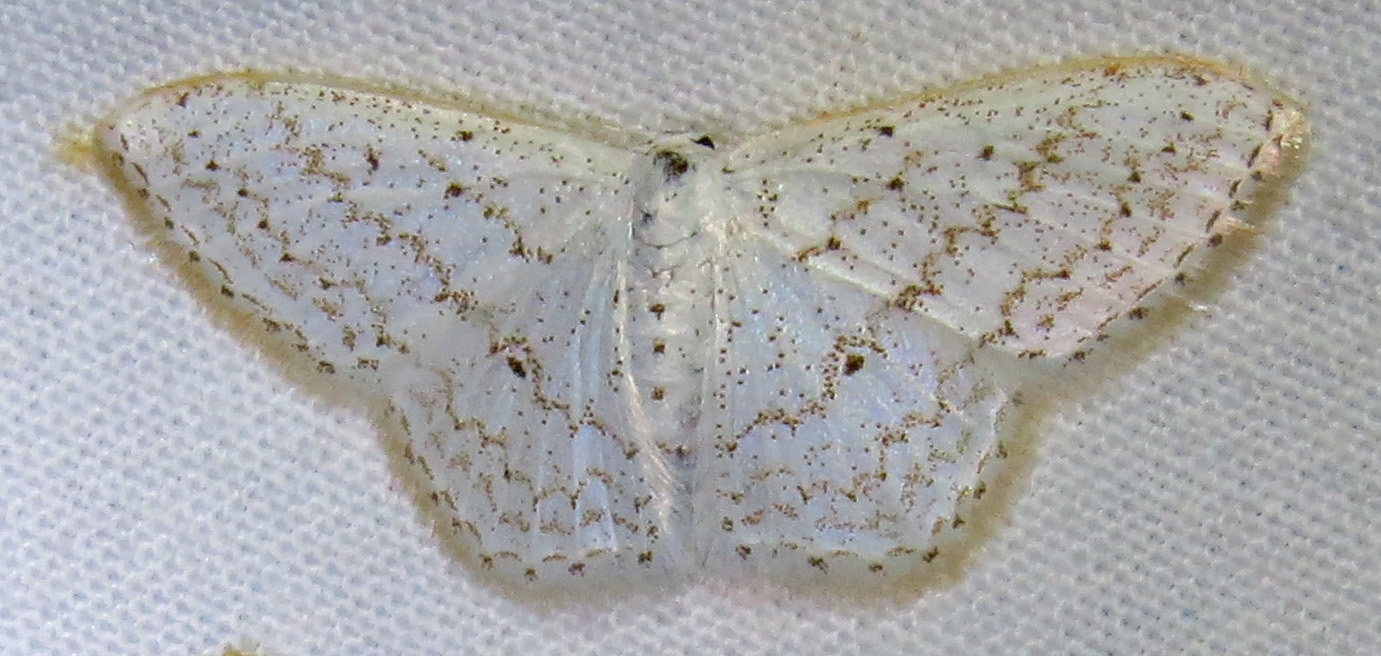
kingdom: Animalia
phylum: Arthropoda
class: Insecta
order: Lepidoptera
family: Geometridae
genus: Idaea
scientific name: Idaea tacturata
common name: Dot-lined wave
